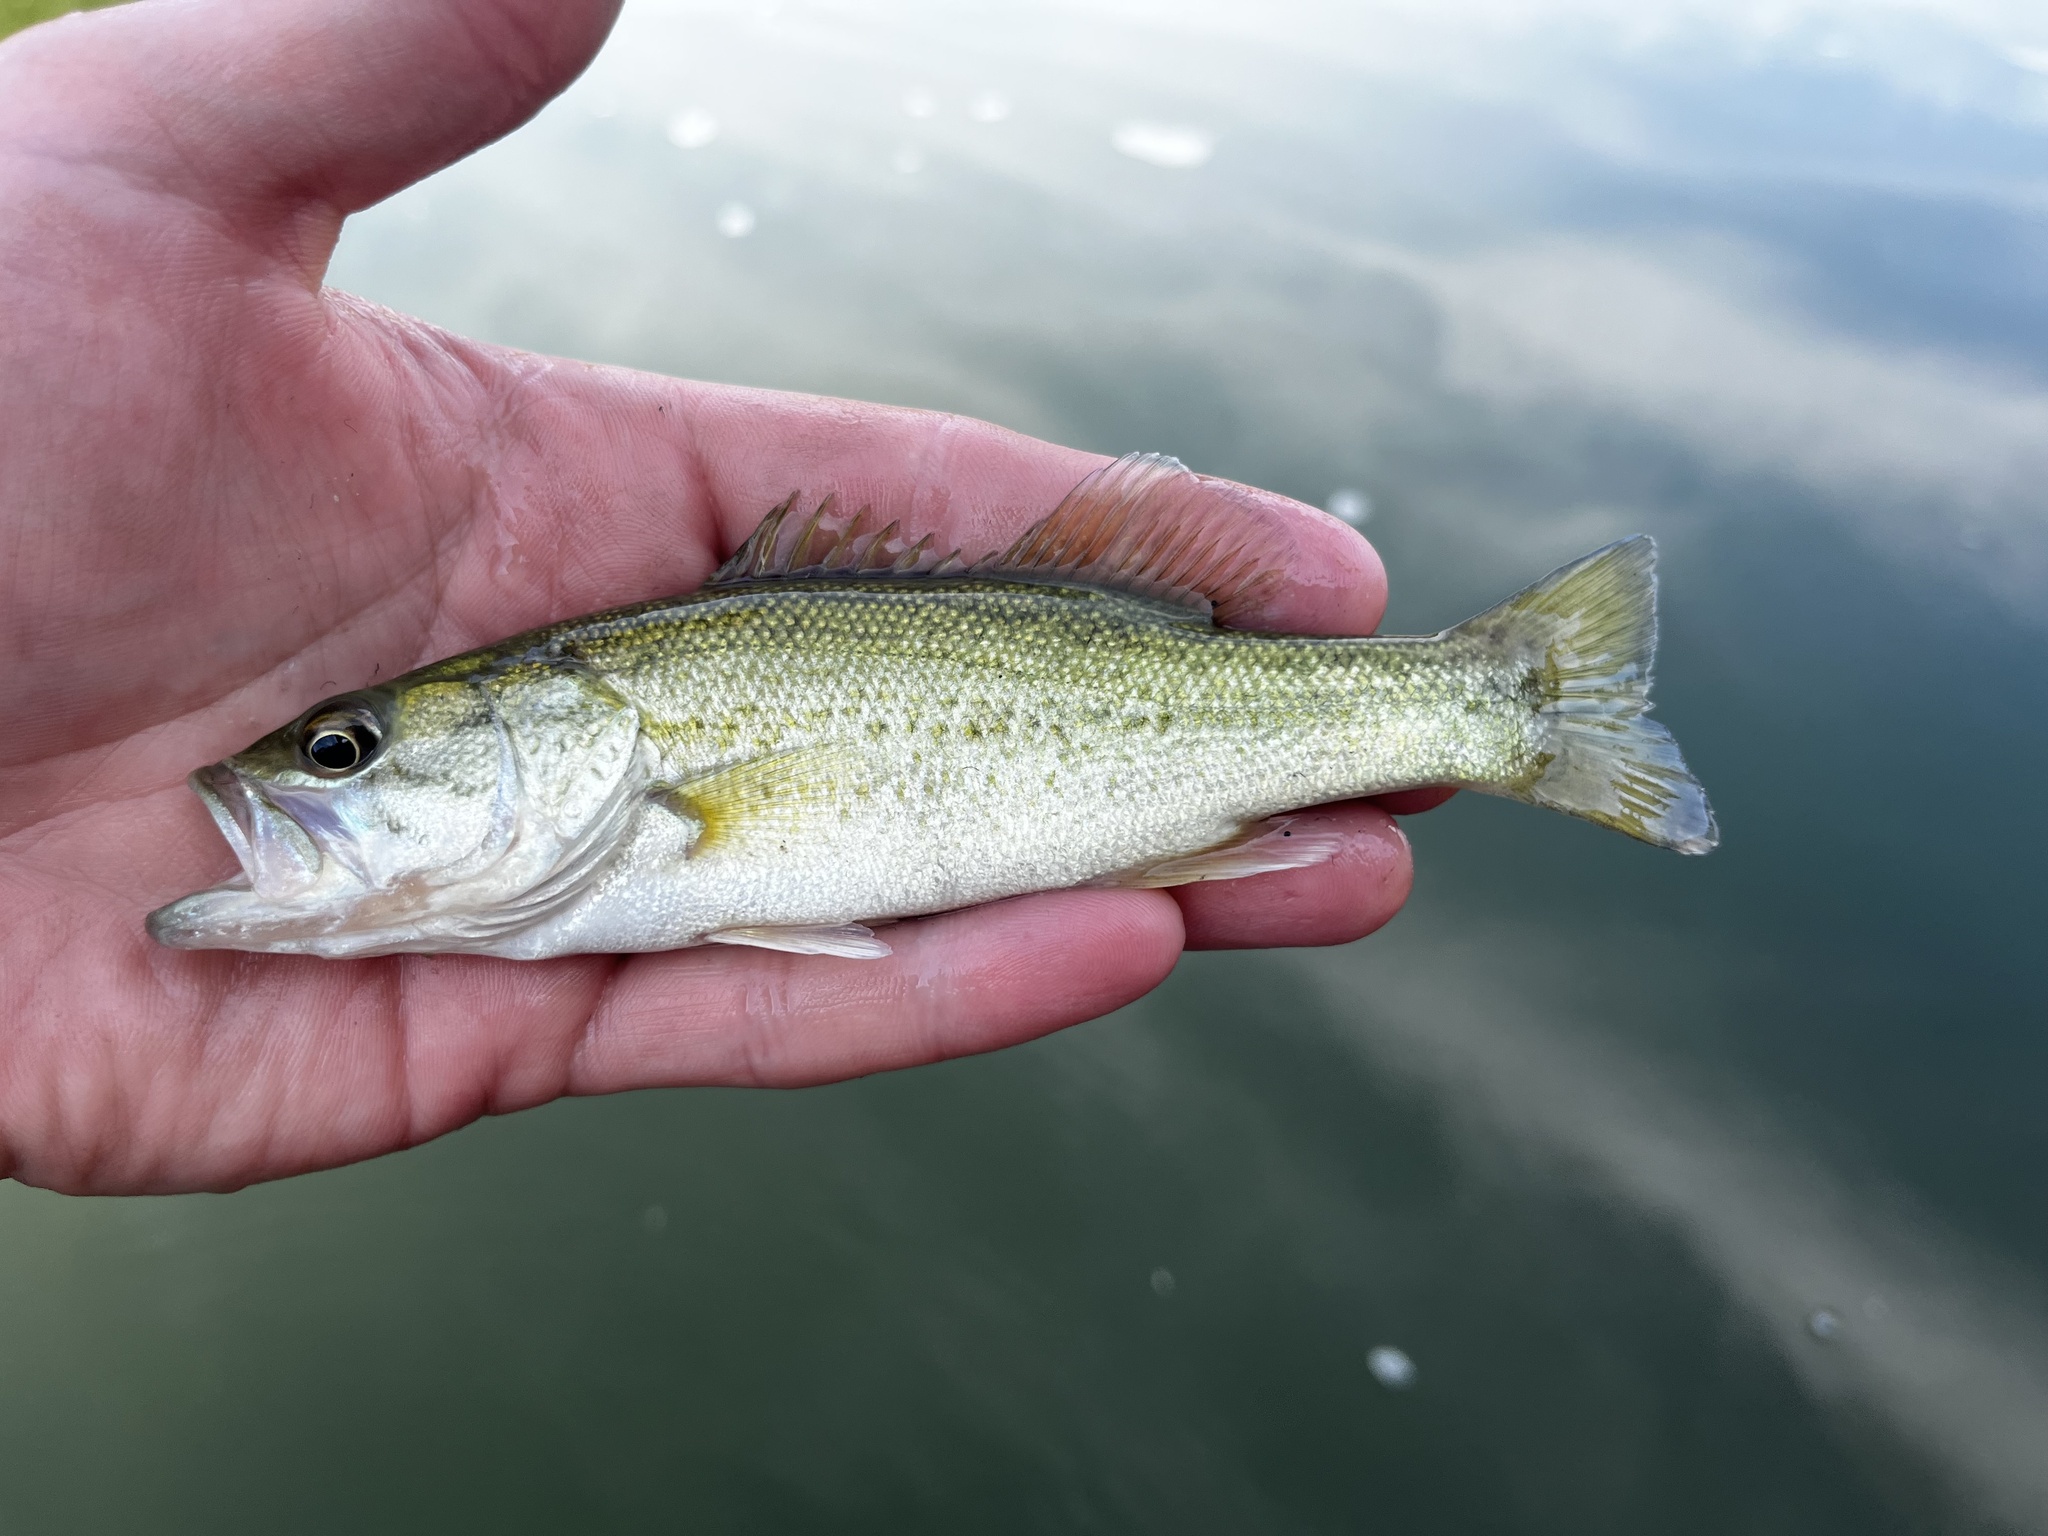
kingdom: Animalia
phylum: Chordata
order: Perciformes
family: Centrarchidae
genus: Micropterus
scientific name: Micropterus
